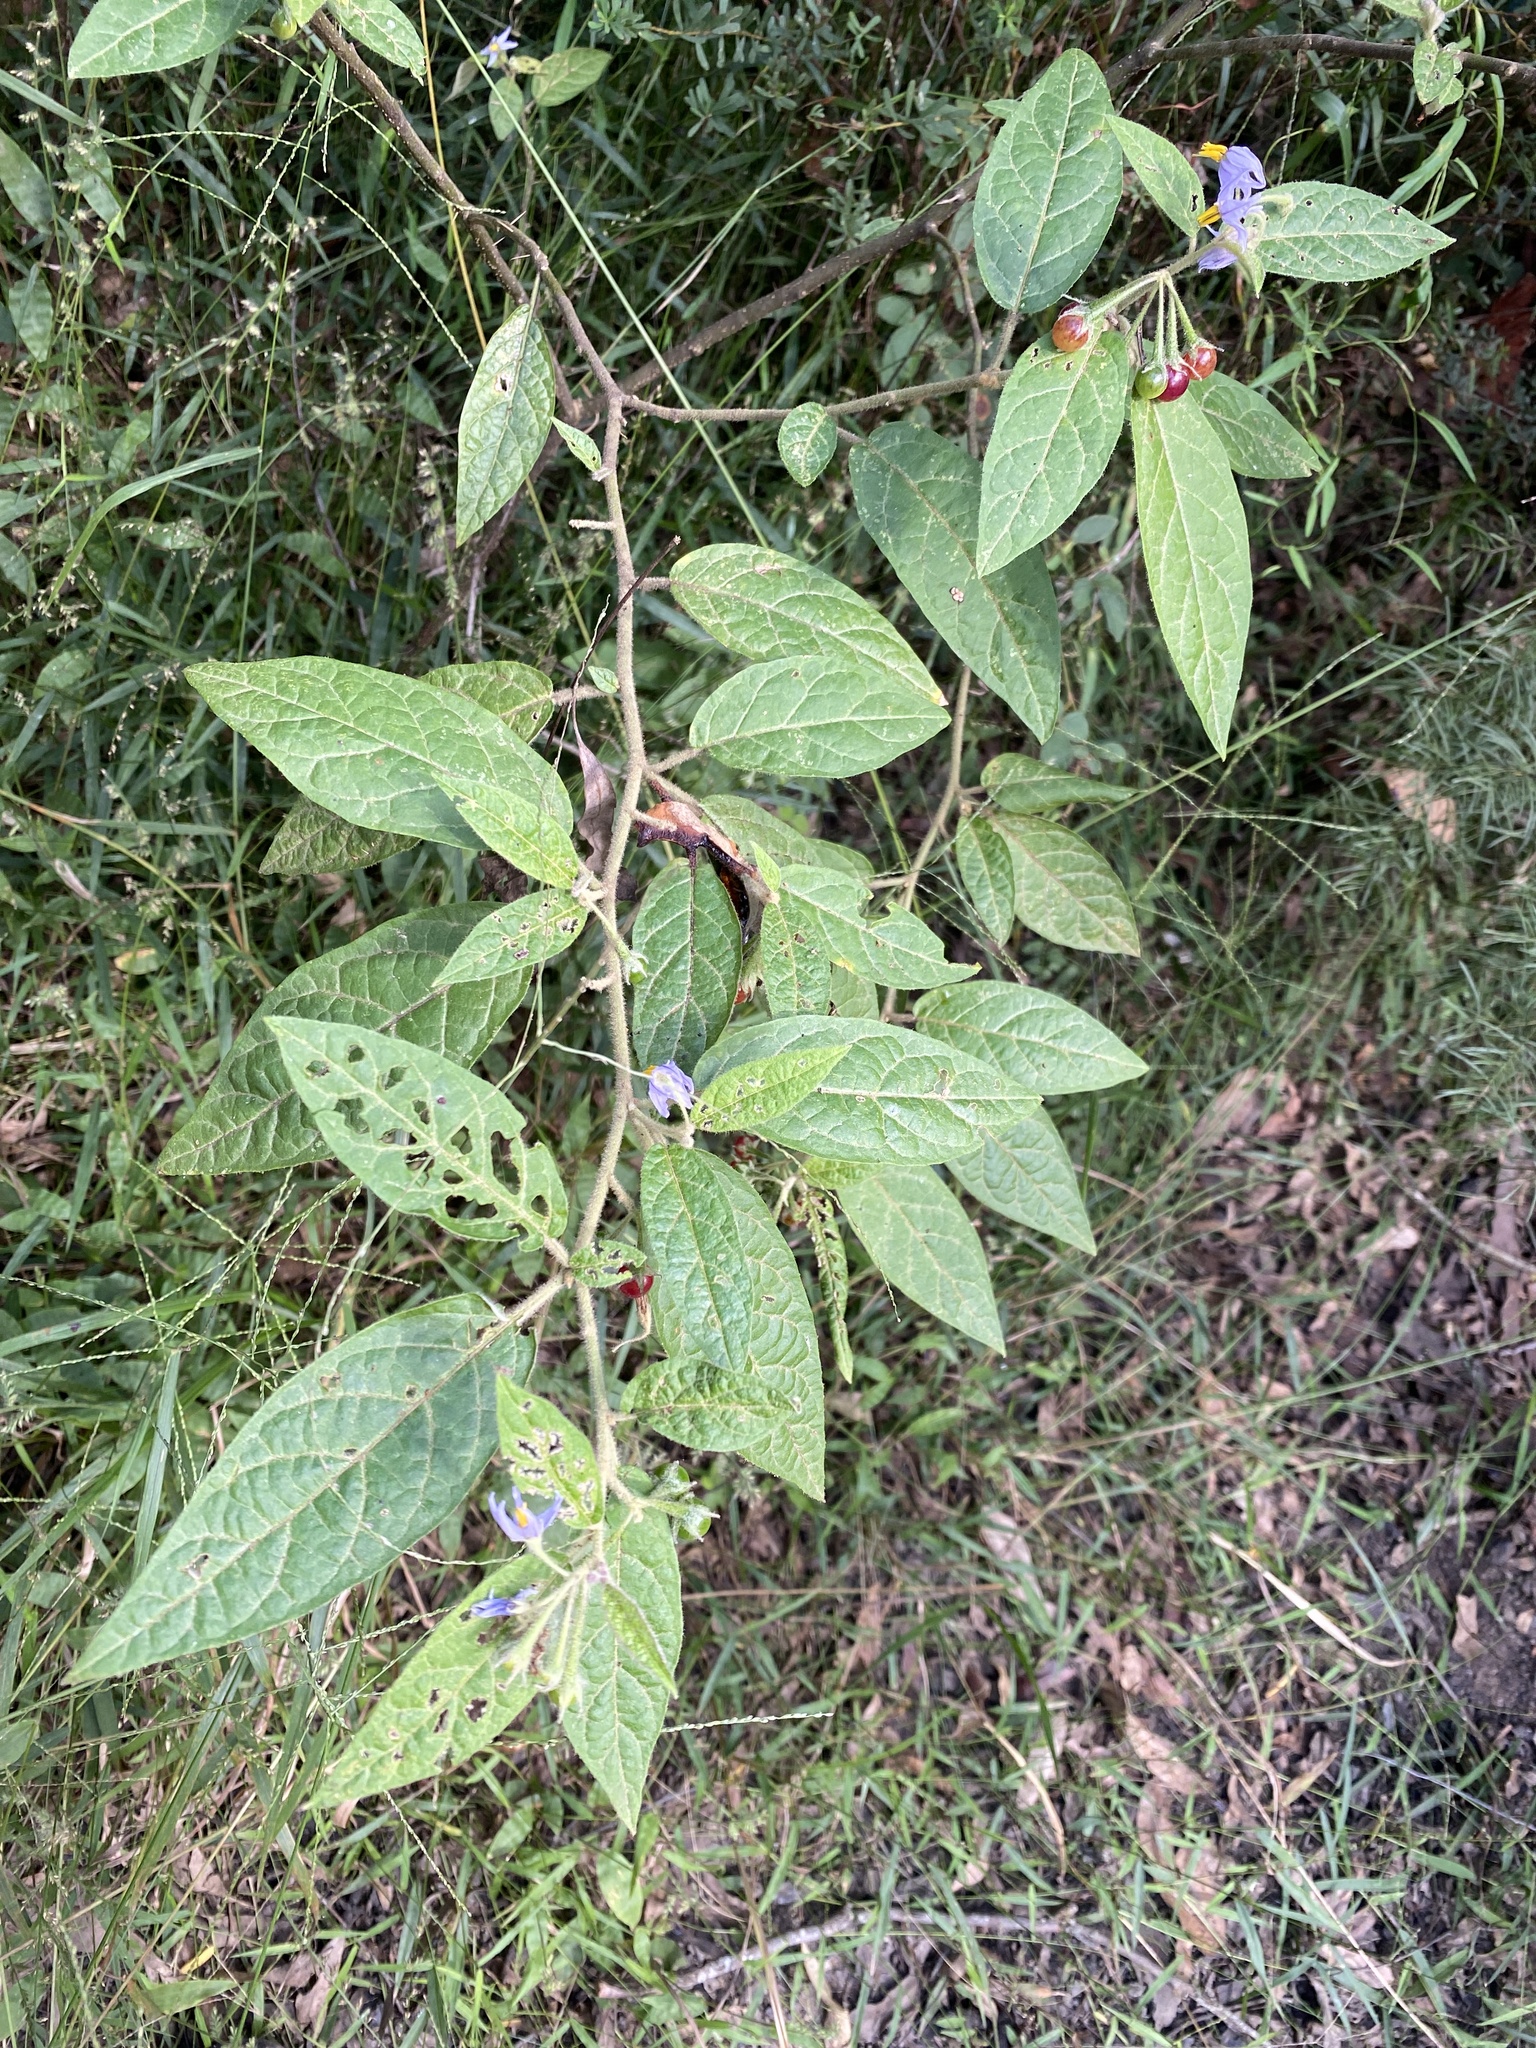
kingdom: Plantae
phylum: Tracheophyta
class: Magnoliopsida
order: Solanales
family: Solanaceae
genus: Solanum
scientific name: Solanum stelligerum
